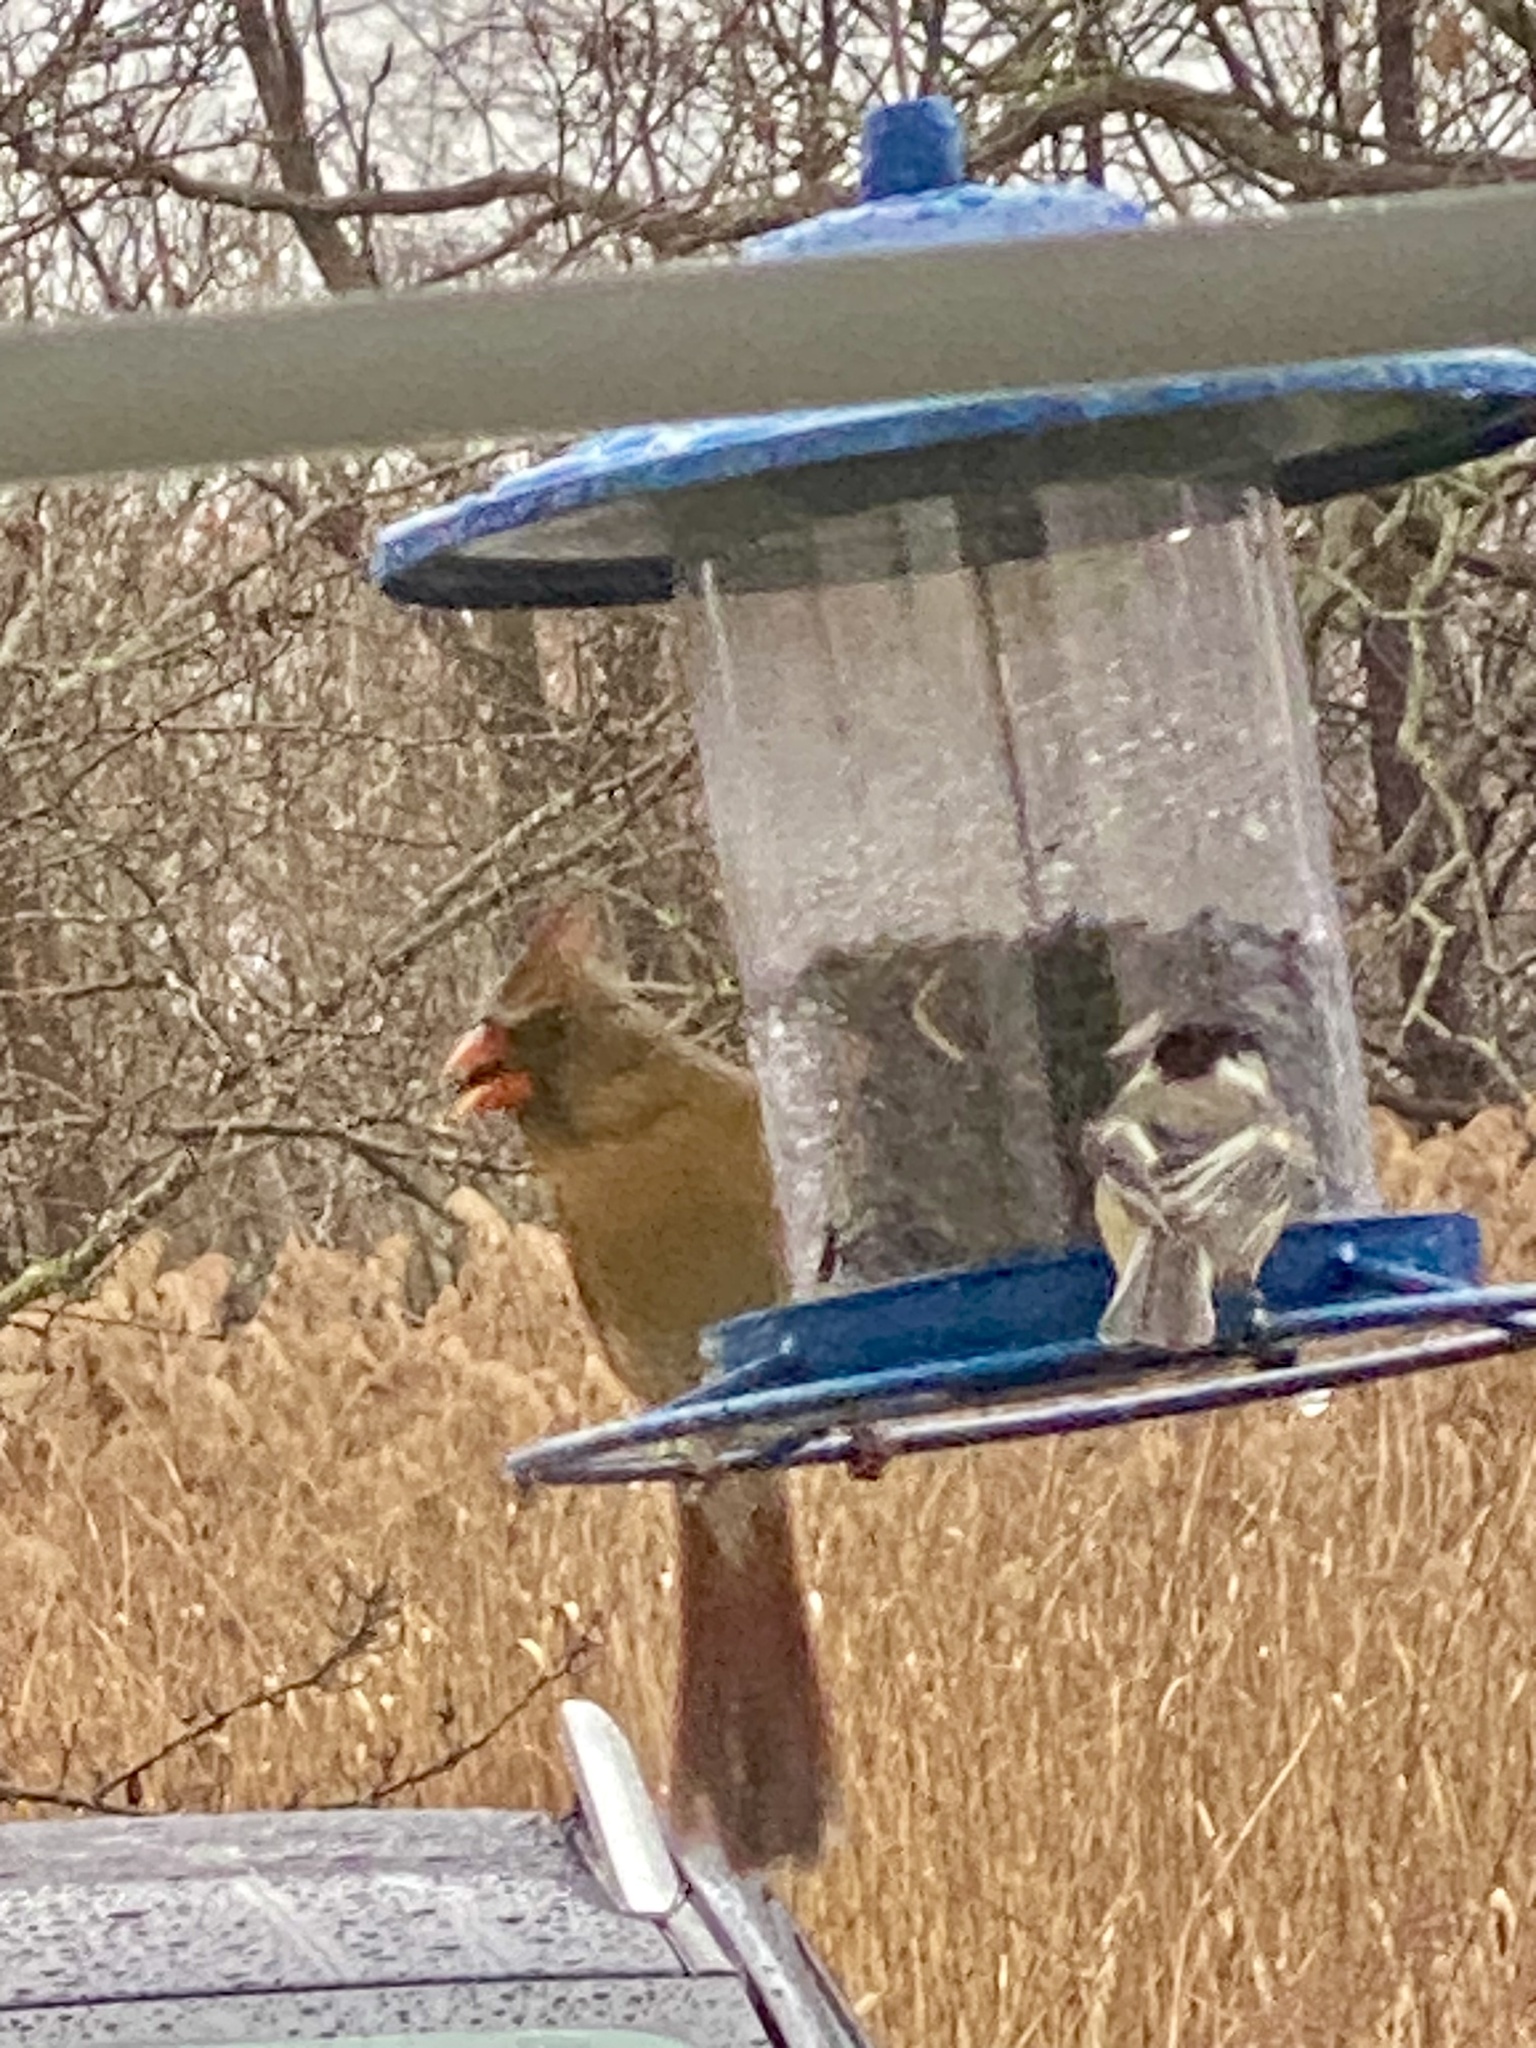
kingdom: Animalia
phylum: Chordata
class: Aves
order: Passeriformes
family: Cardinalidae
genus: Cardinalis
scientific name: Cardinalis cardinalis
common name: Northern cardinal
